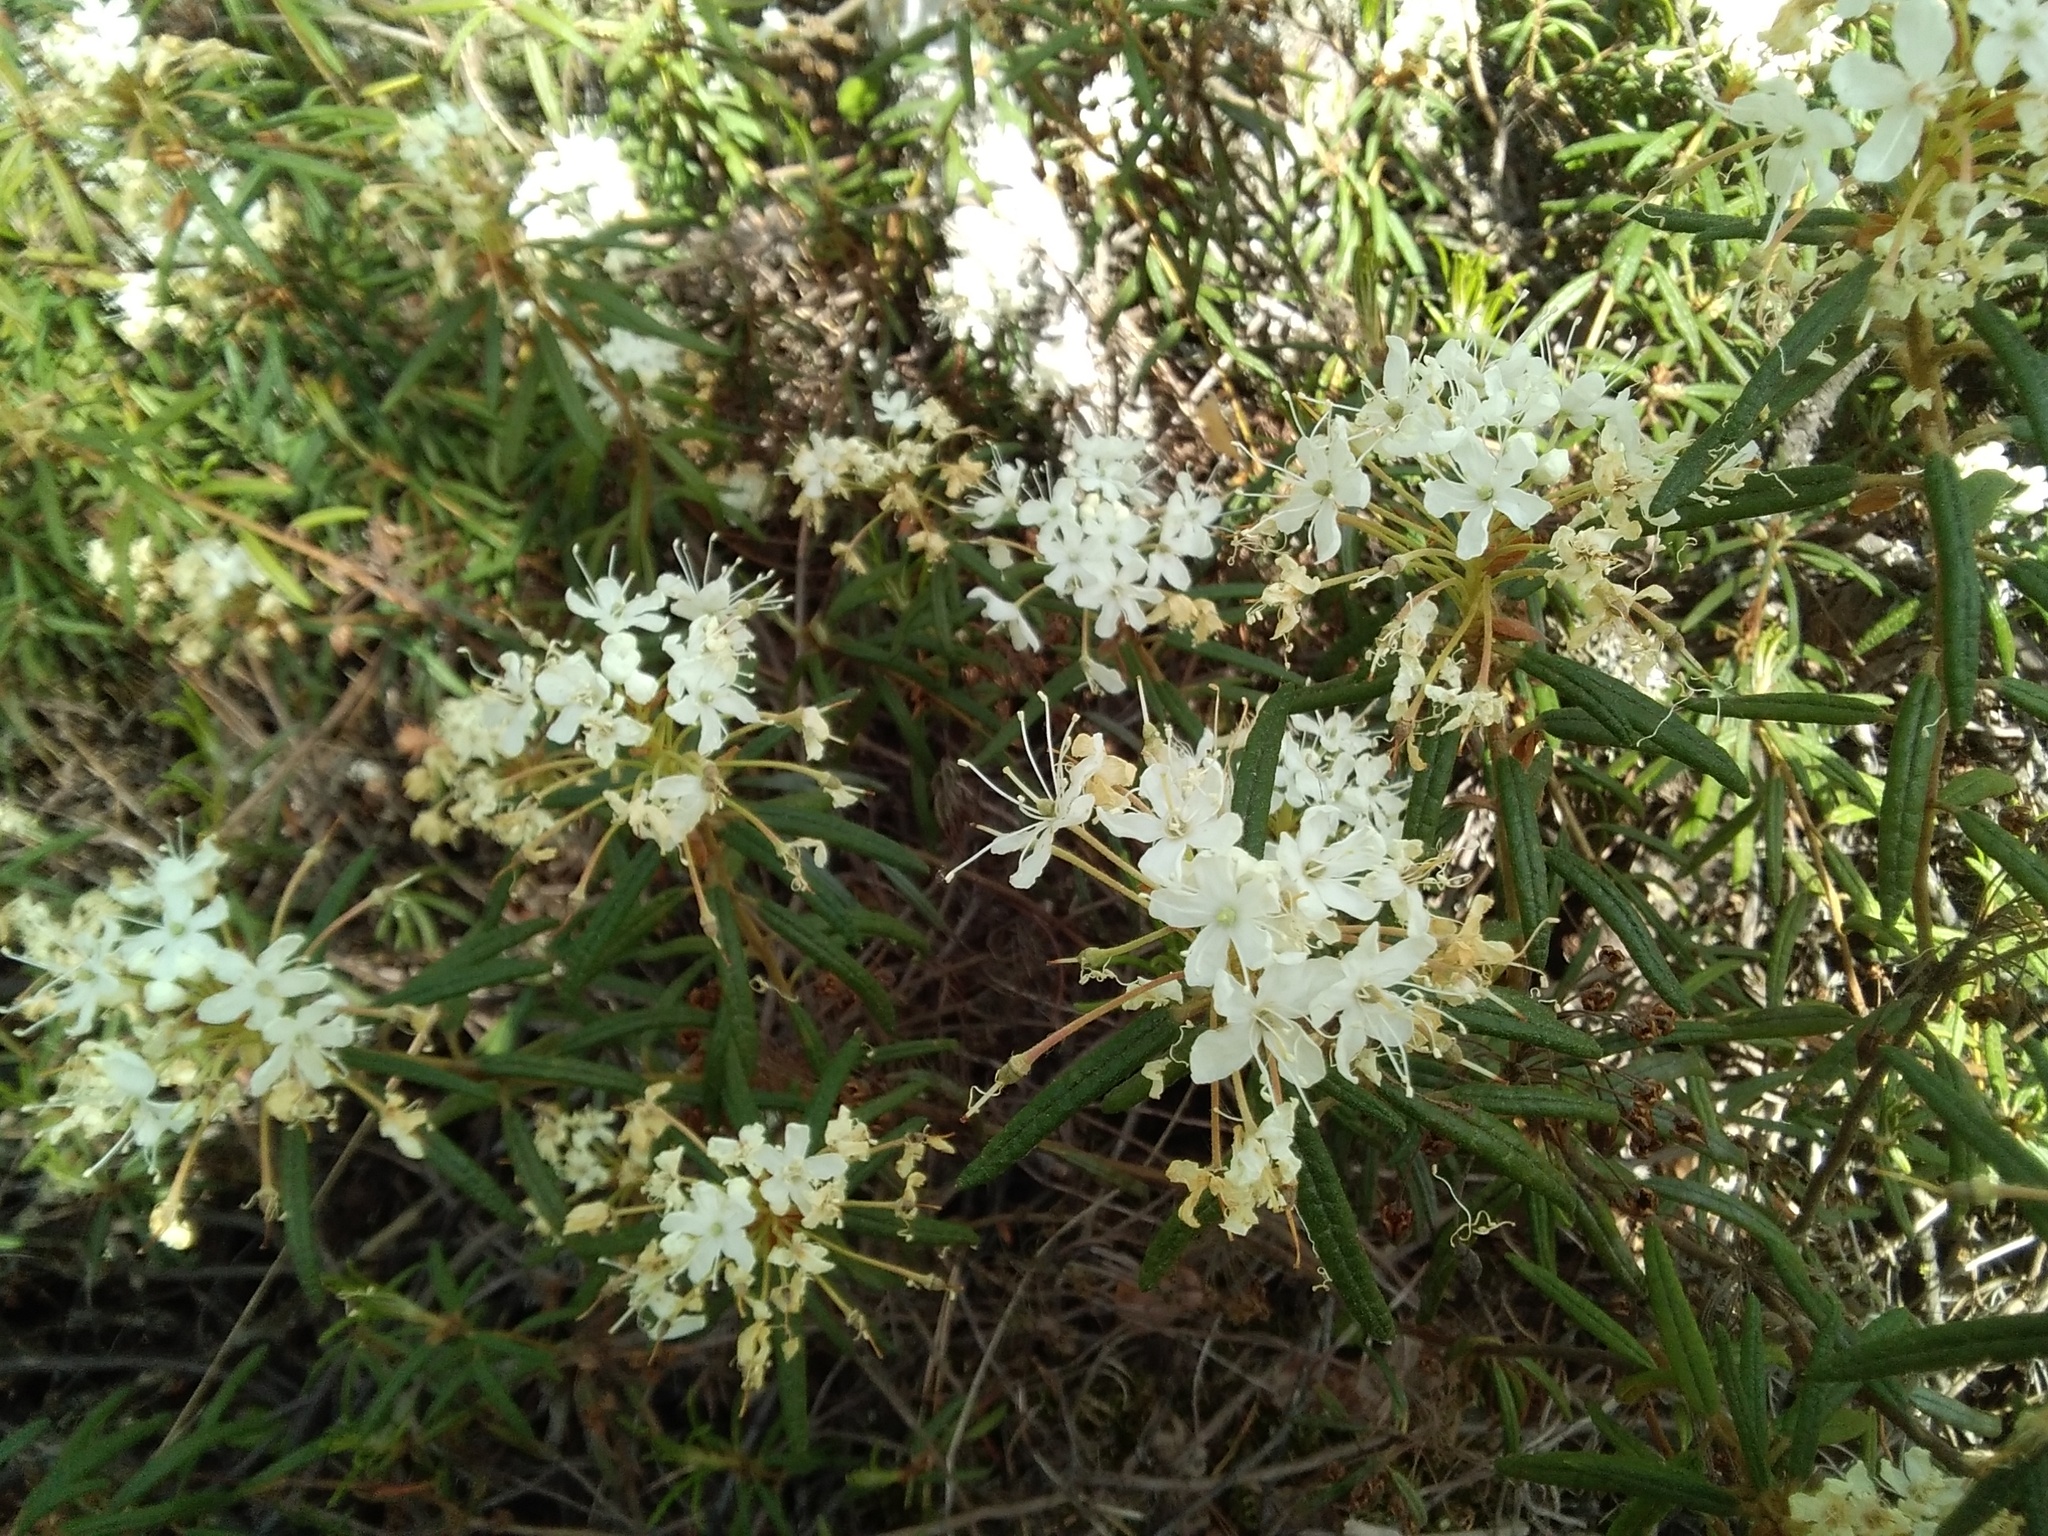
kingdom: Plantae
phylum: Tracheophyta
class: Magnoliopsida
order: Ericales
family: Ericaceae
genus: Rhododendron
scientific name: Rhododendron tomentosum
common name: Marsh labrador tea
